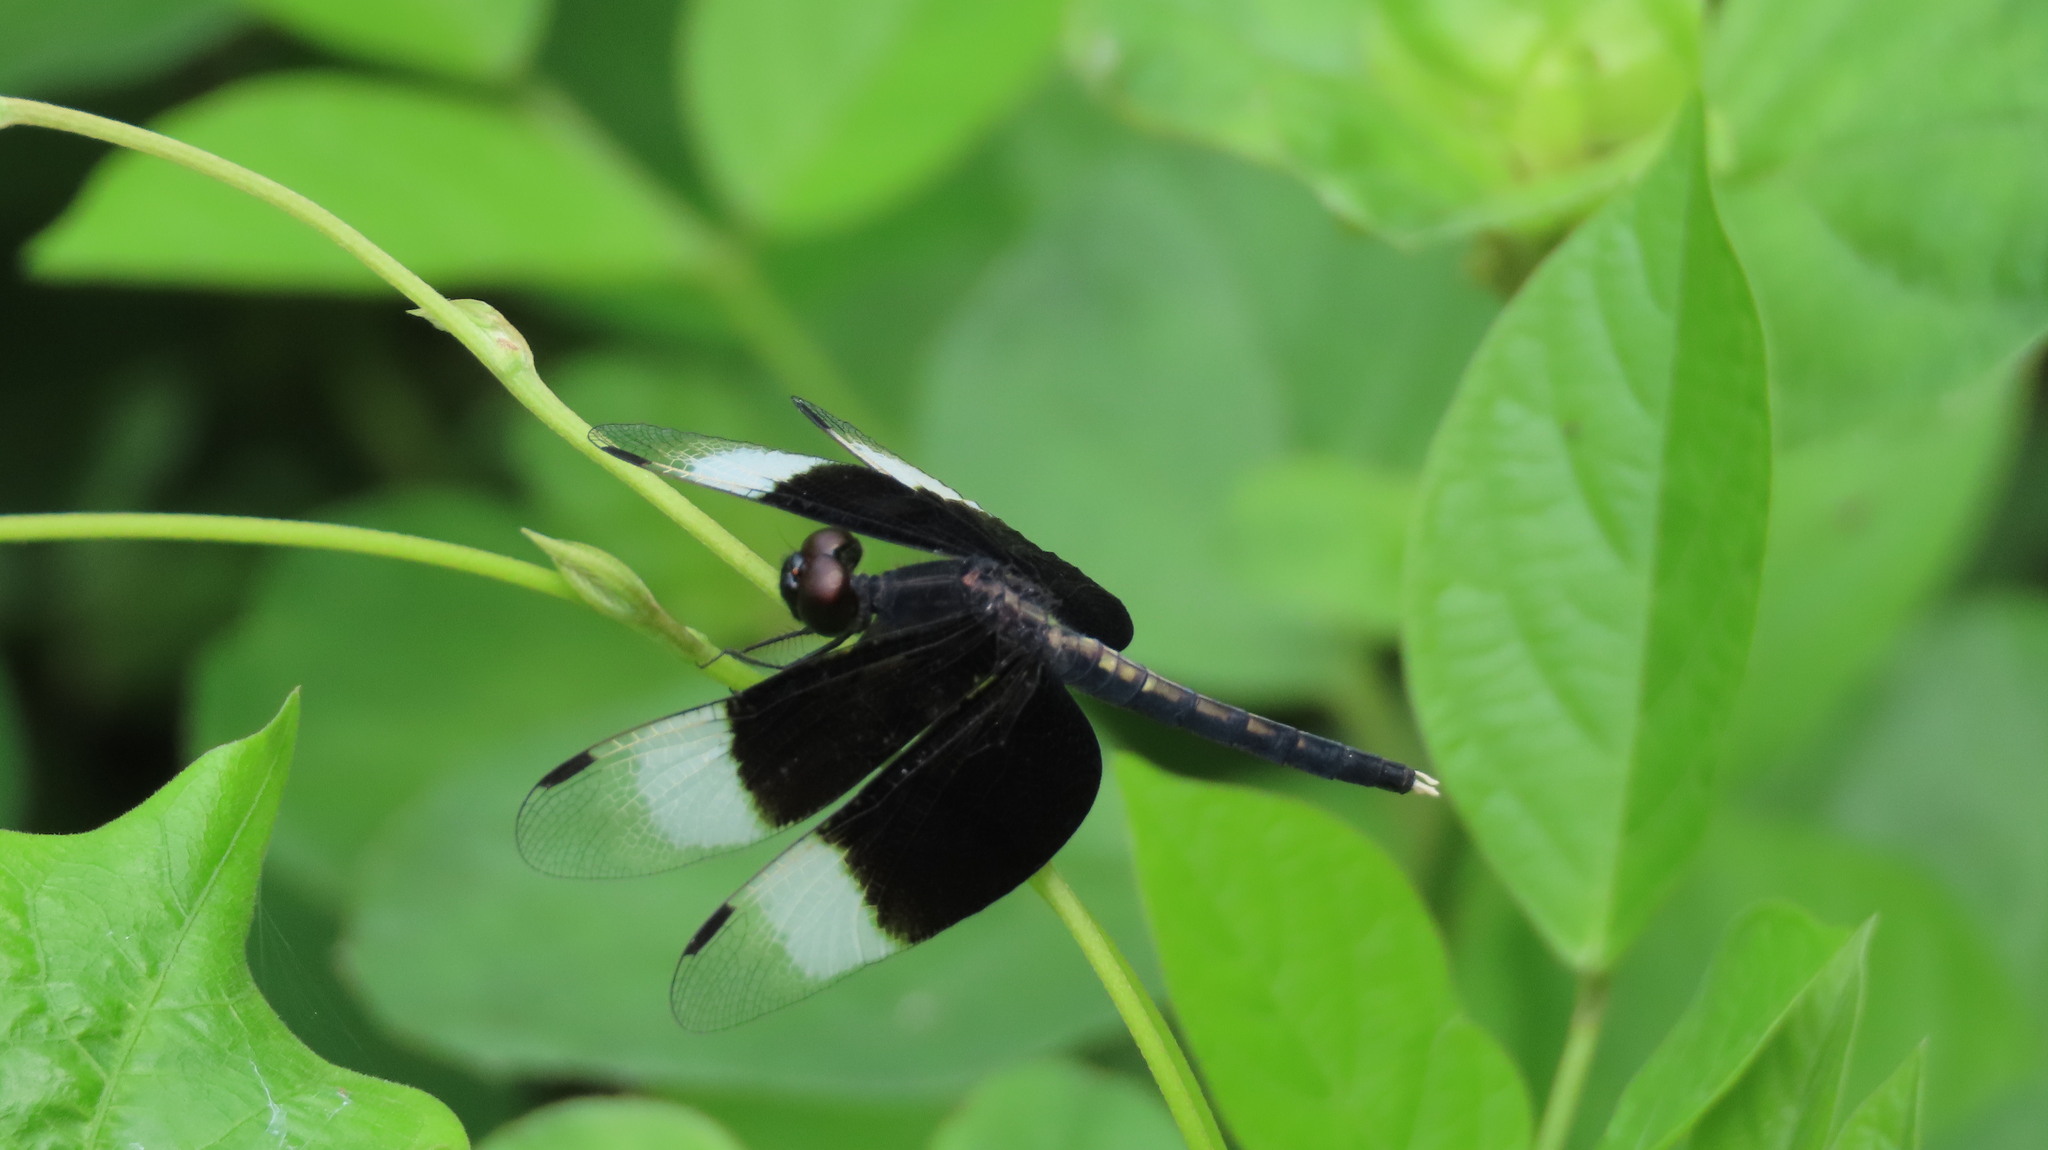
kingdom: Animalia
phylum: Arthropoda
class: Insecta
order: Odonata
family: Libellulidae
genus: Neurothemis
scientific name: Neurothemis tullia
